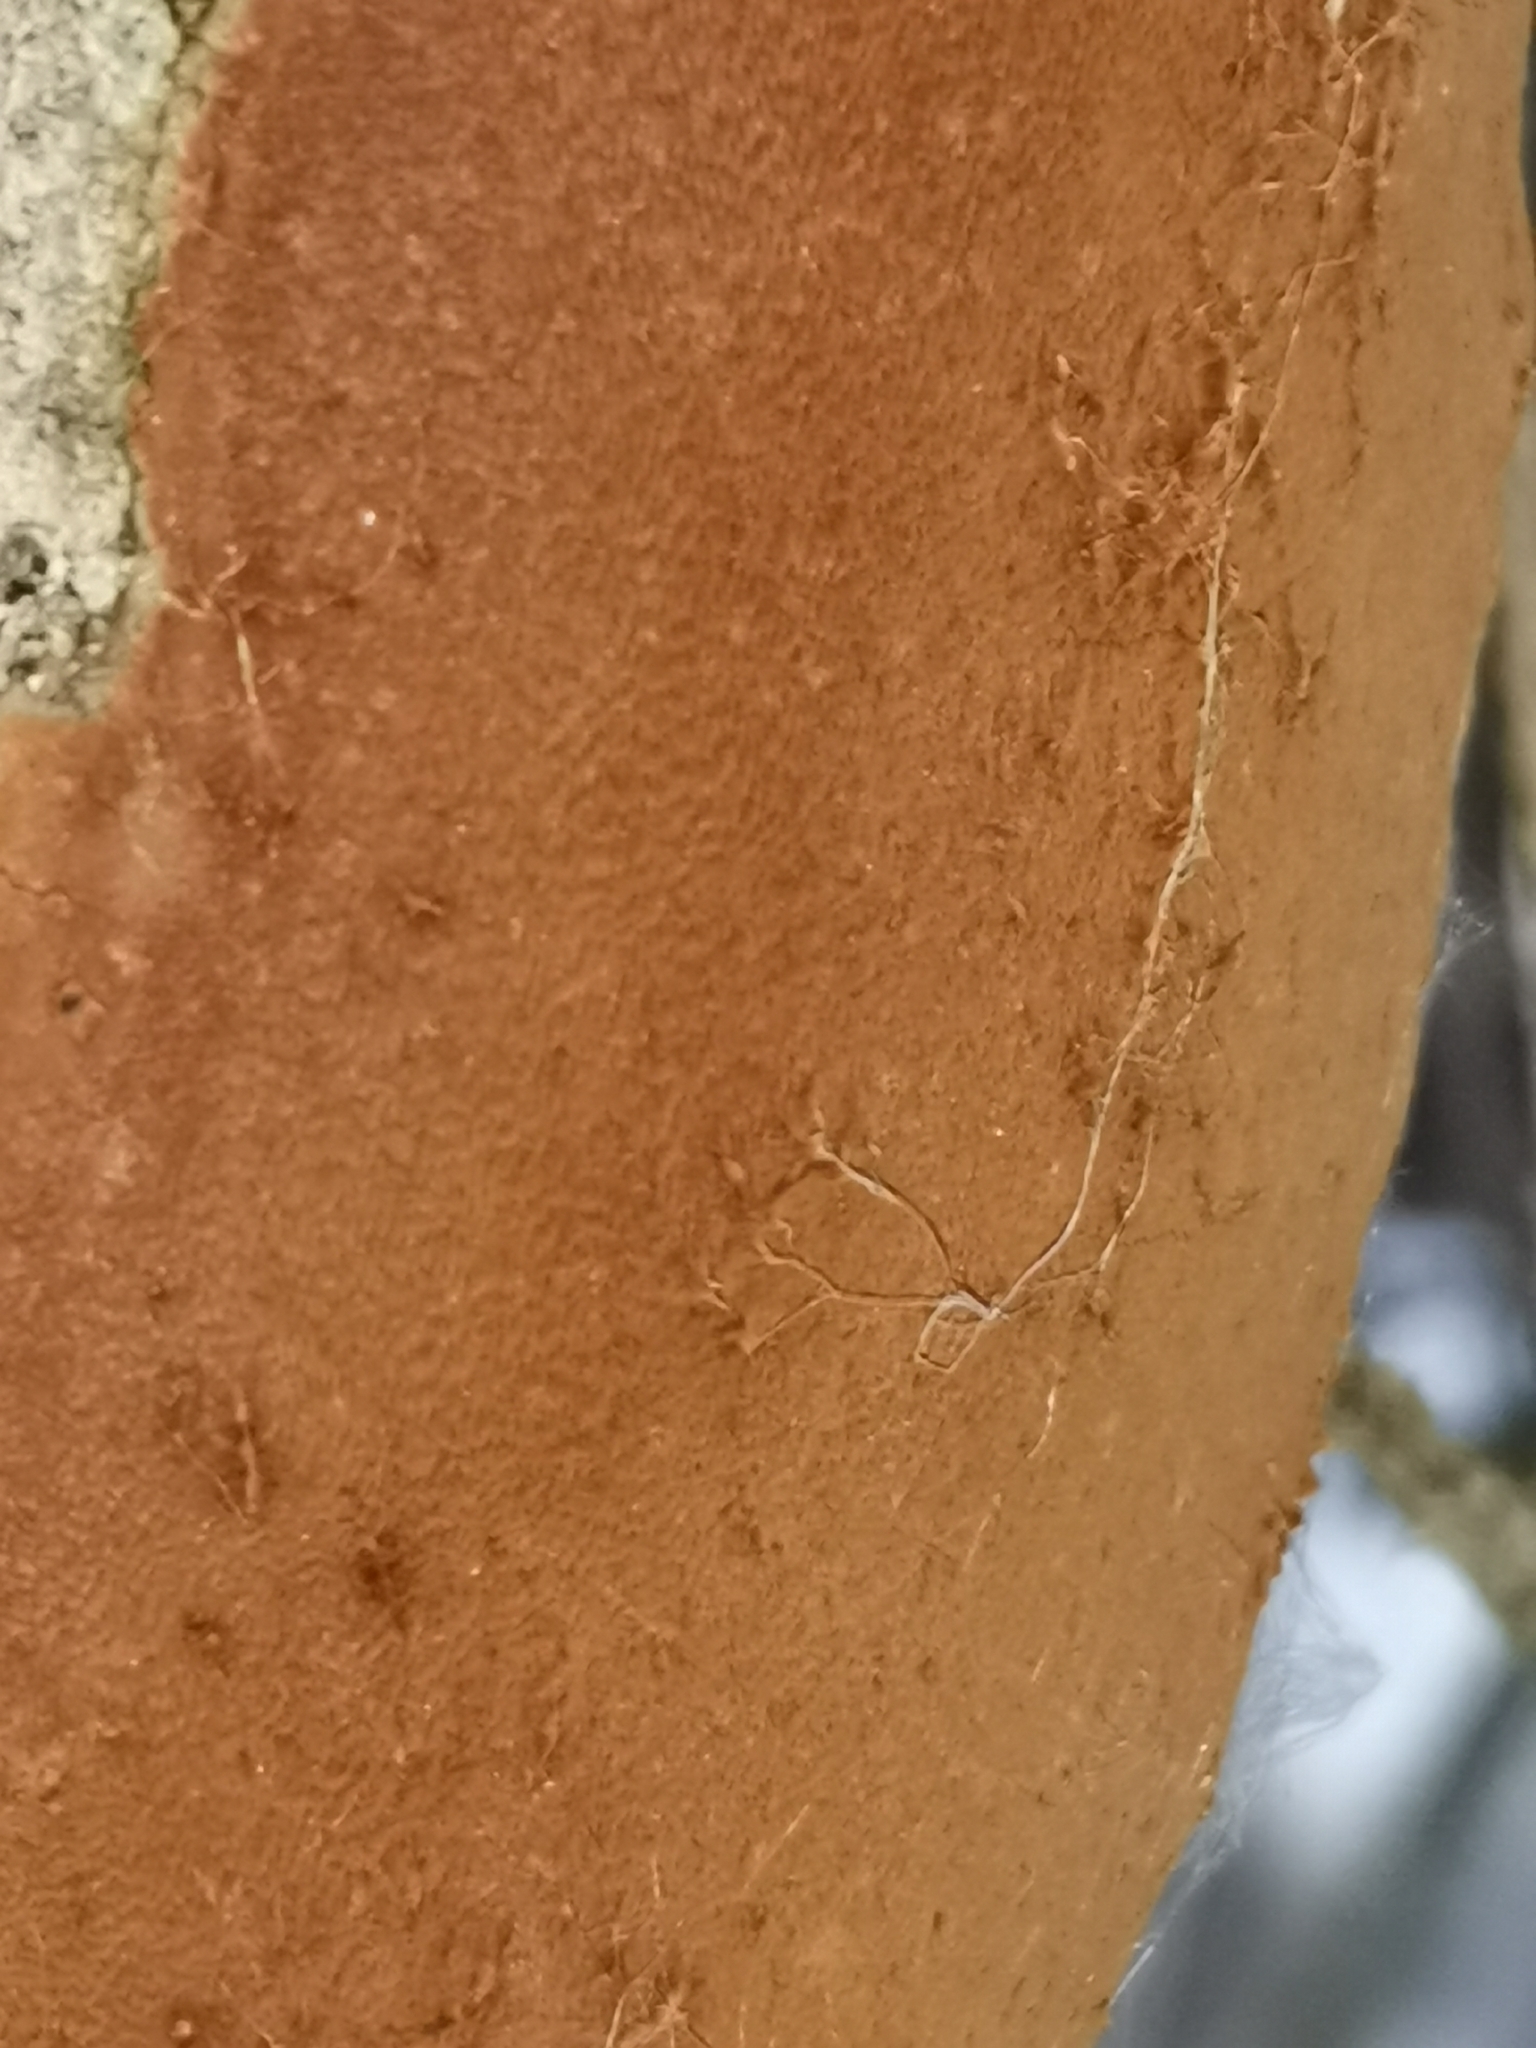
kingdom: Fungi
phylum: Basidiomycota
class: Agaricomycetes
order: Hymenochaetales
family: Hymenochaetaceae
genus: Fomitiporia
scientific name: Fomitiporia punctata
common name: Elbowpatch crust
